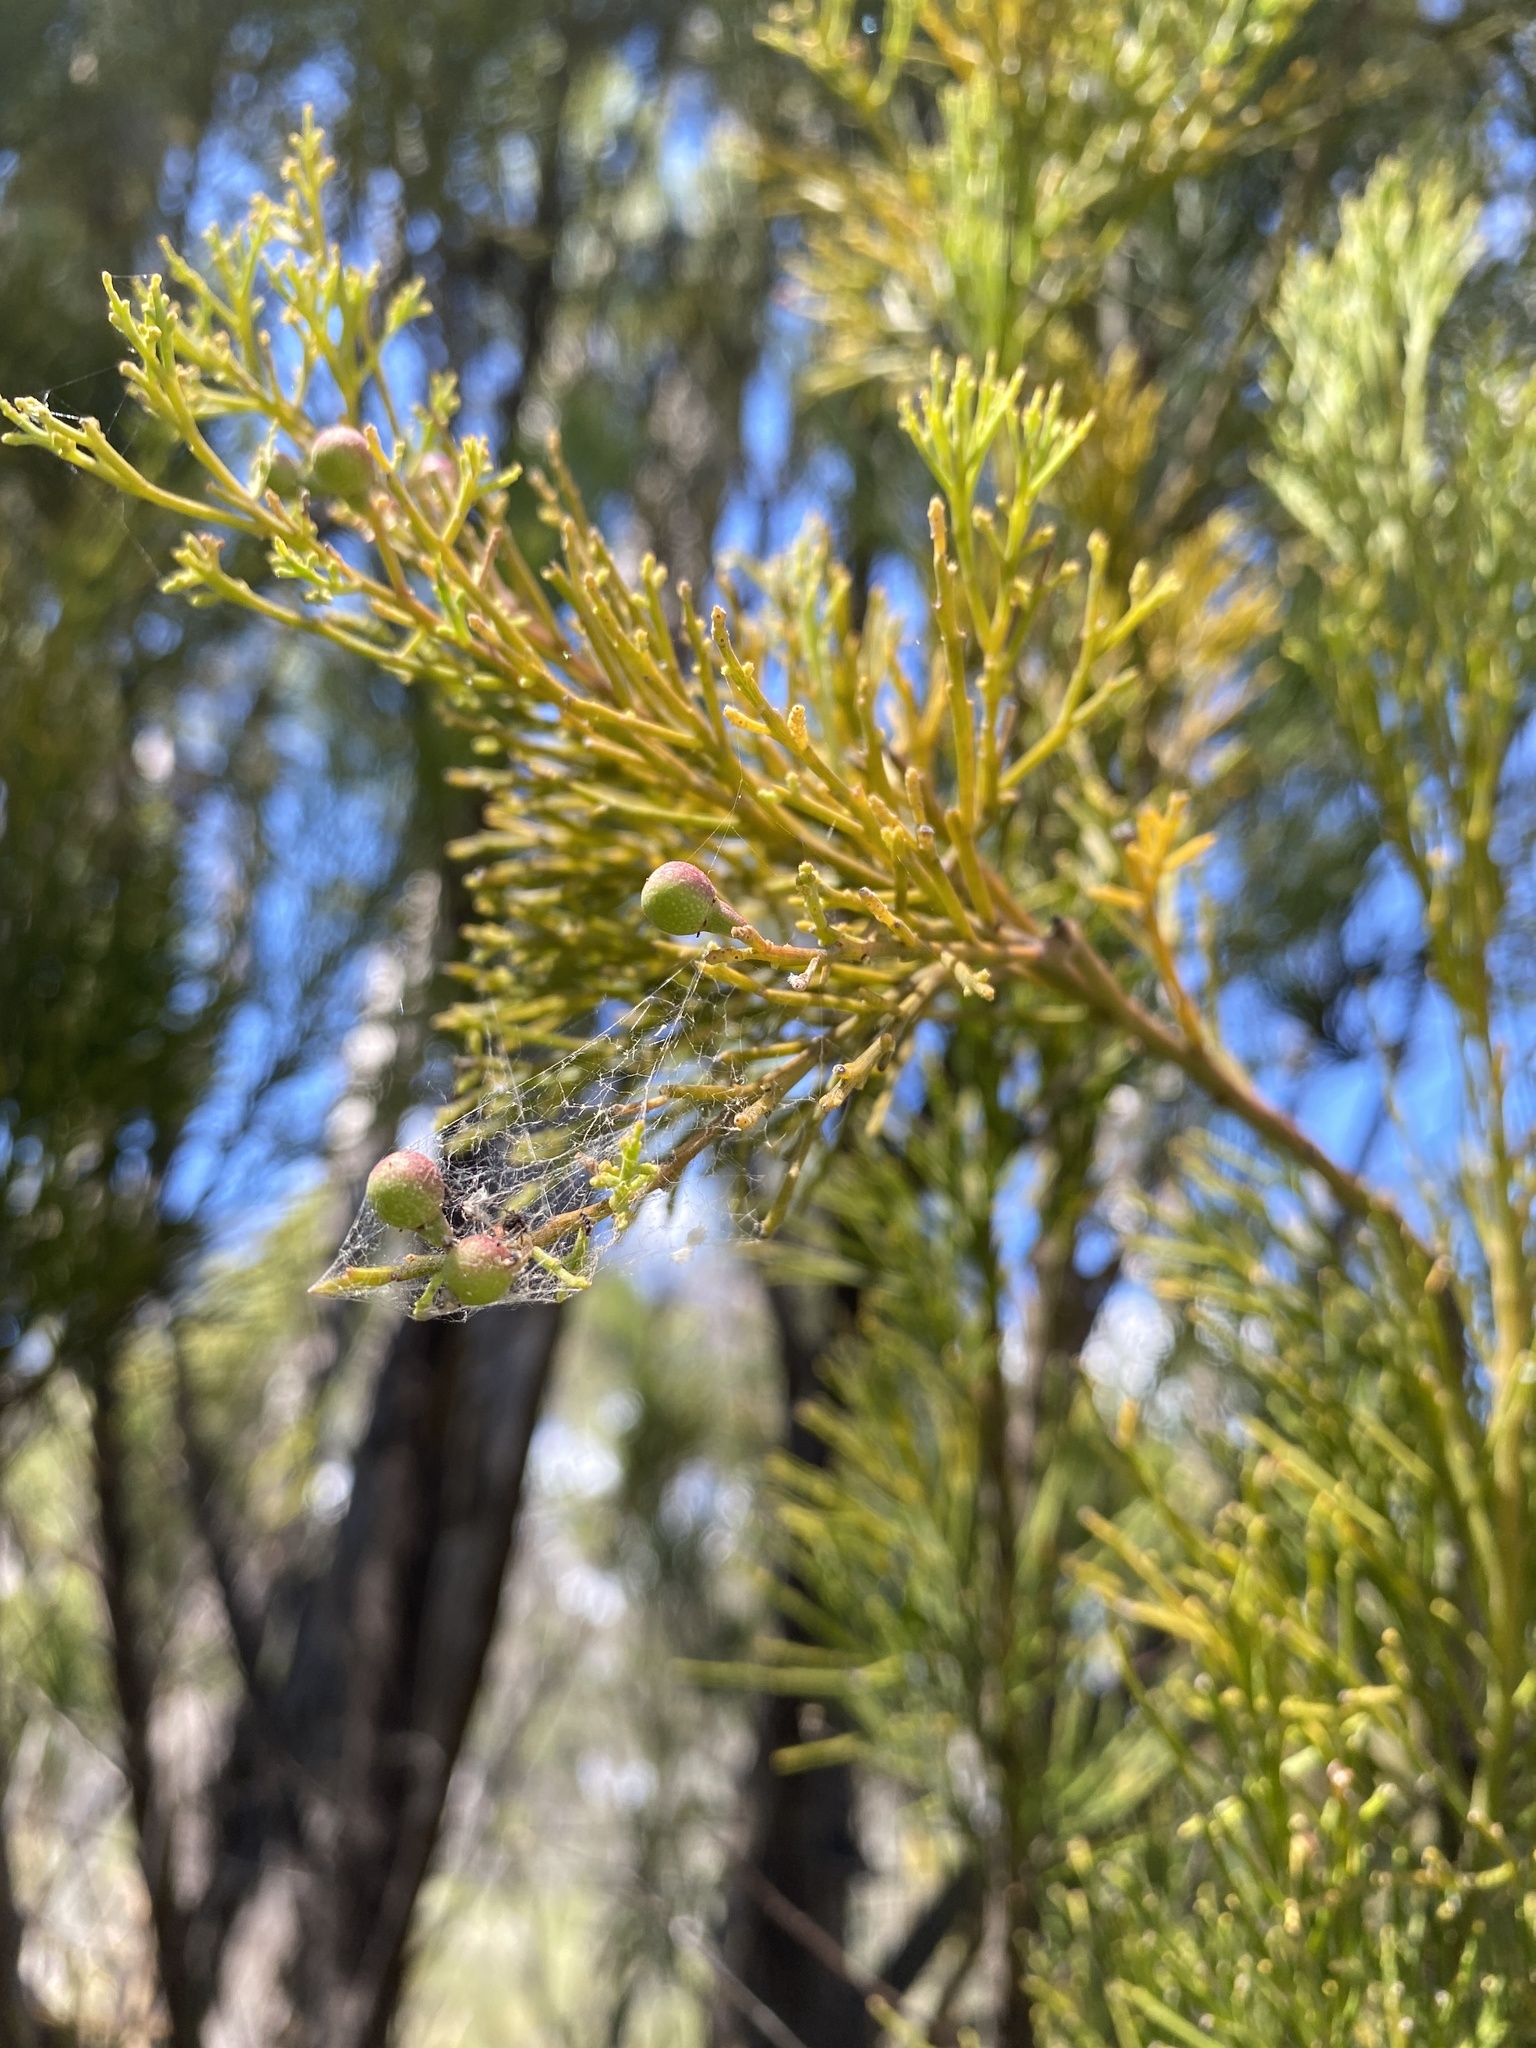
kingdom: Plantae
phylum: Tracheophyta
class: Magnoliopsida
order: Santalales
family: Santalaceae
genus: Exocarpos
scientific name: Exocarpos cupressiformis
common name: Cherry ballart
